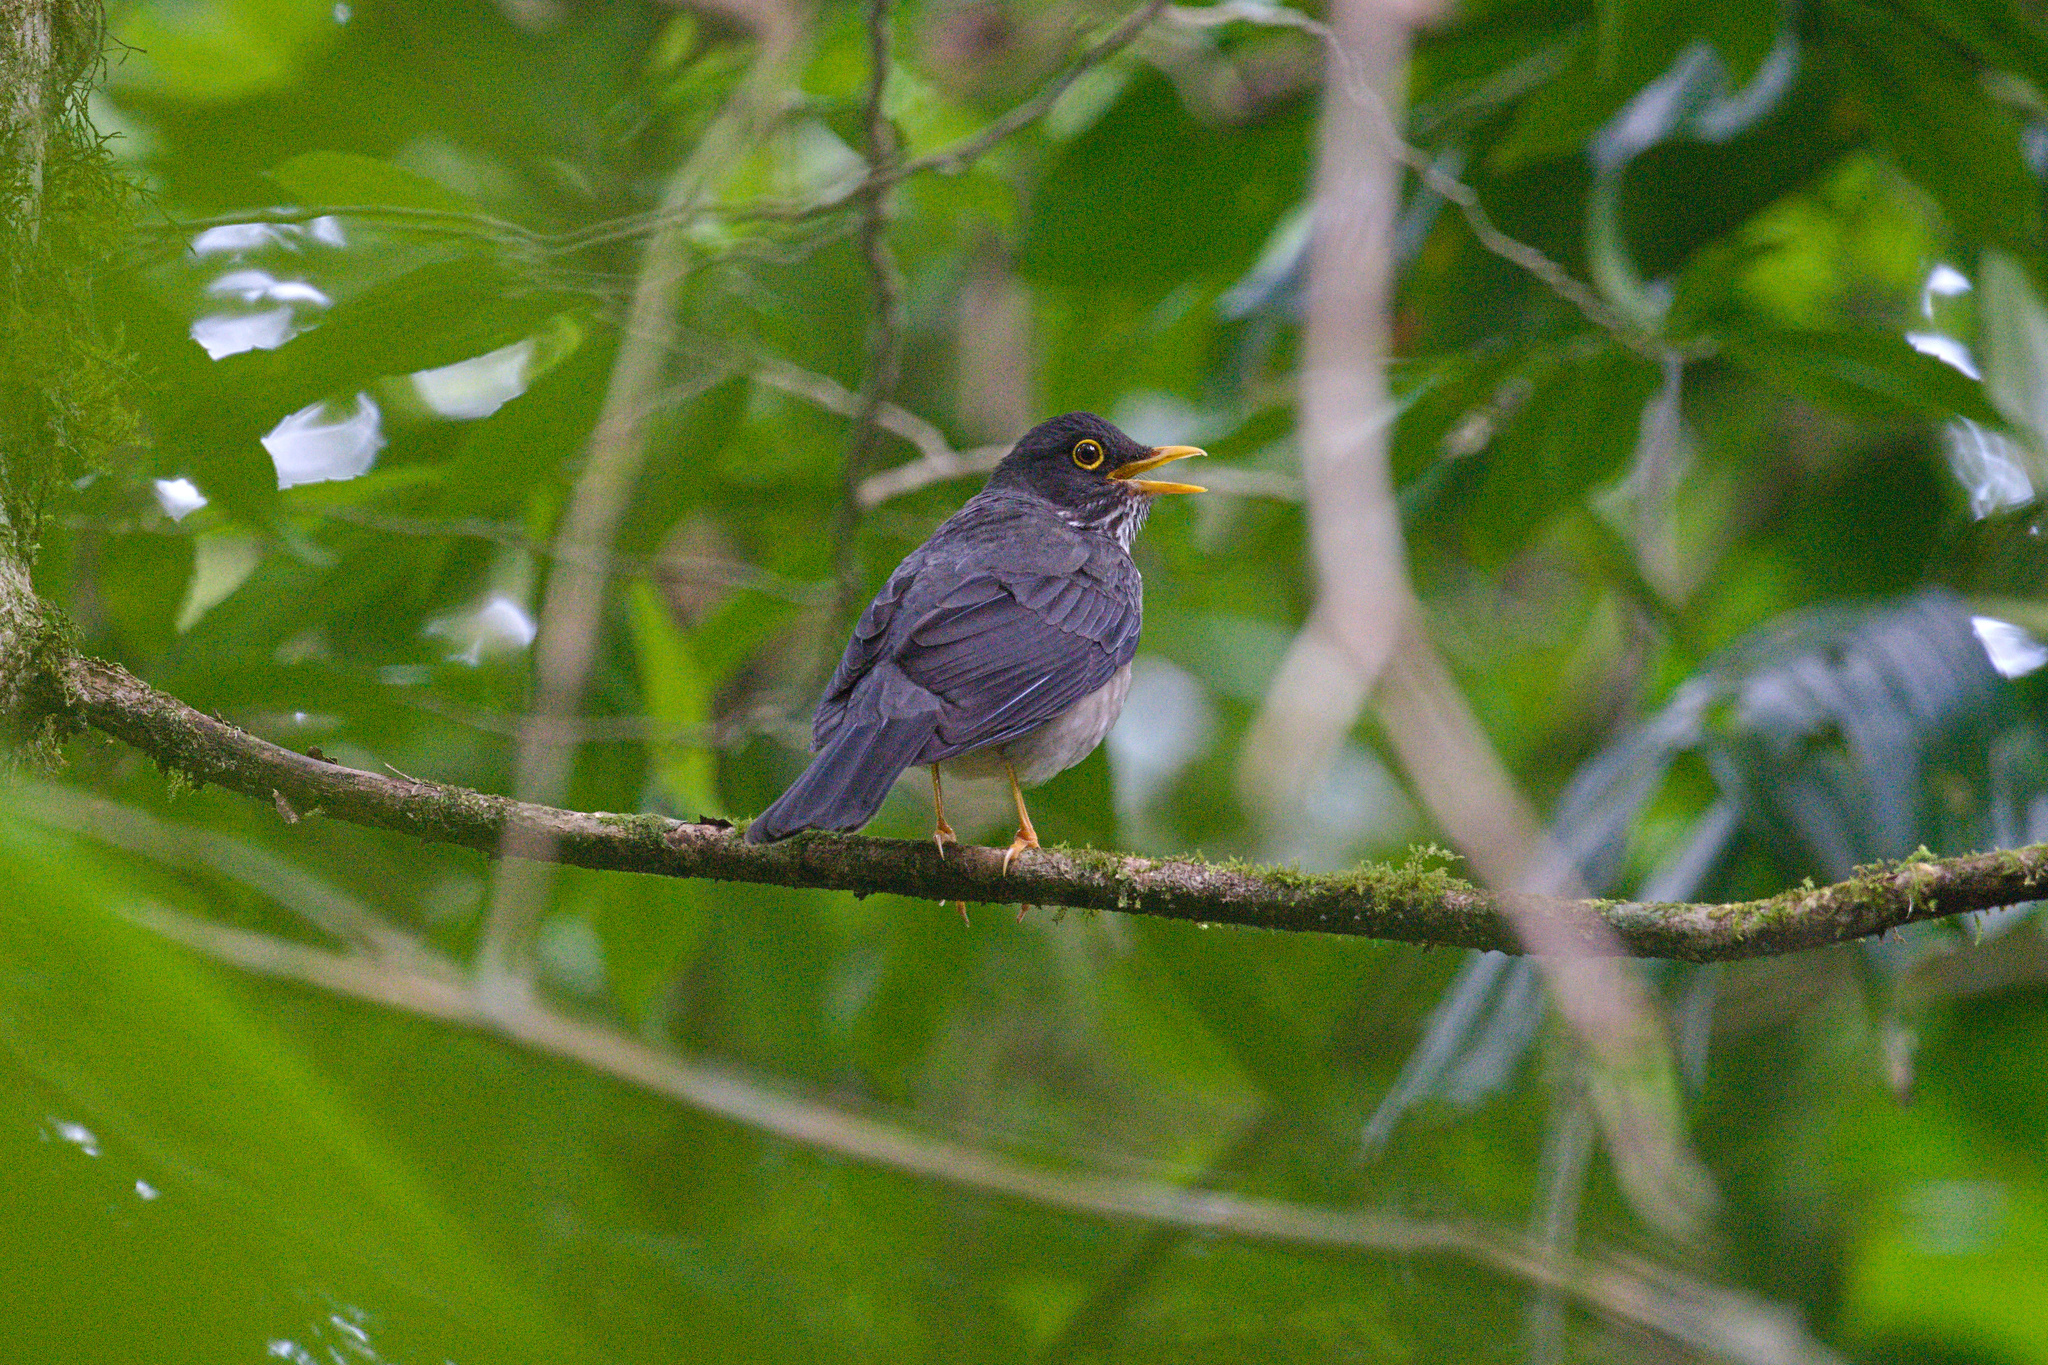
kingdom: Animalia
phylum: Chordata
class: Aves
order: Passeriformes
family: Turdidae
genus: Turdus
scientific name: Turdus assimilis
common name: White-throated thrush
